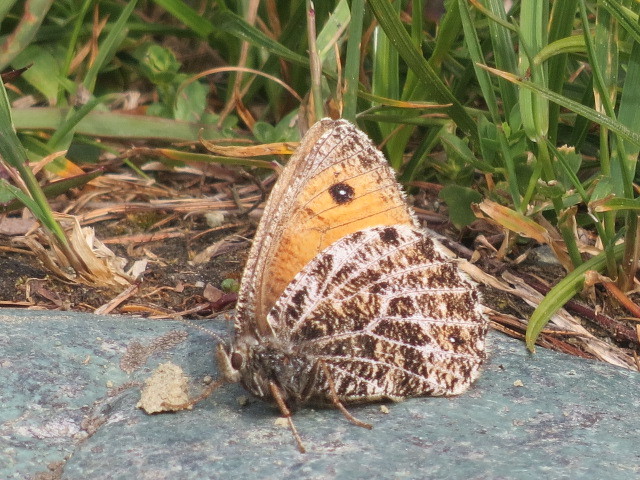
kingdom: Animalia
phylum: Arthropoda
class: Insecta
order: Lepidoptera
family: Nymphalidae
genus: Oeneis
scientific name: Oeneis aello
